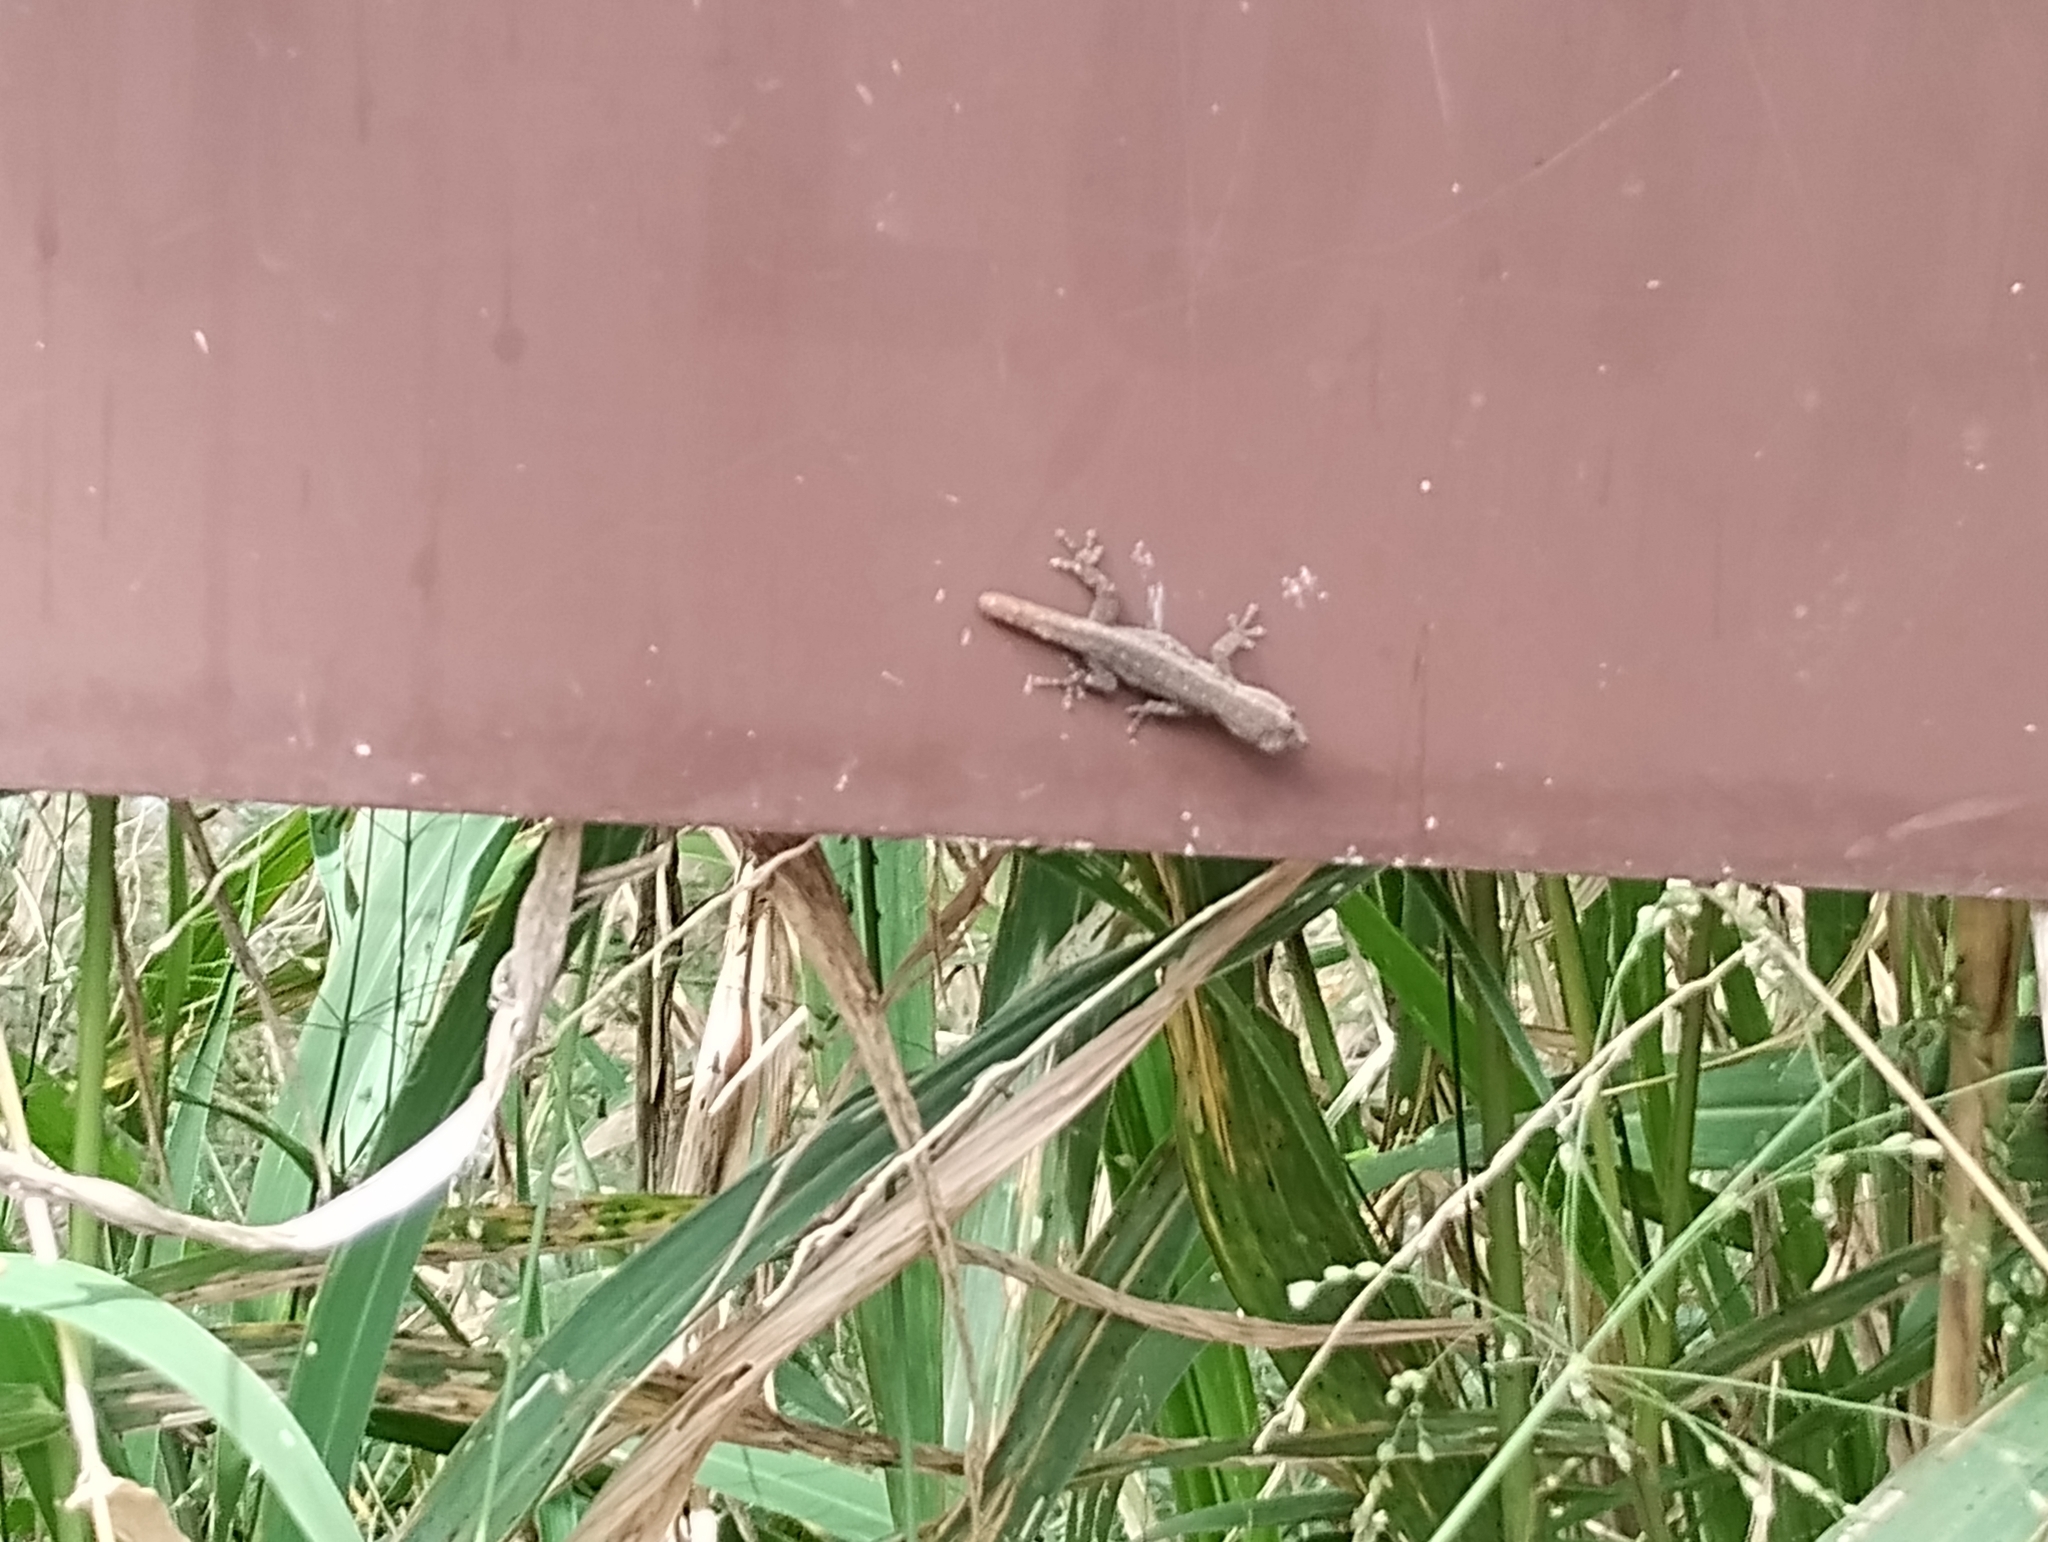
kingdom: Animalia
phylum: Chordata
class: Squamata
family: Gekkonidae
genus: Lygodactylus
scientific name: Lygodactylus capensis
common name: Cape dwarf gecko
